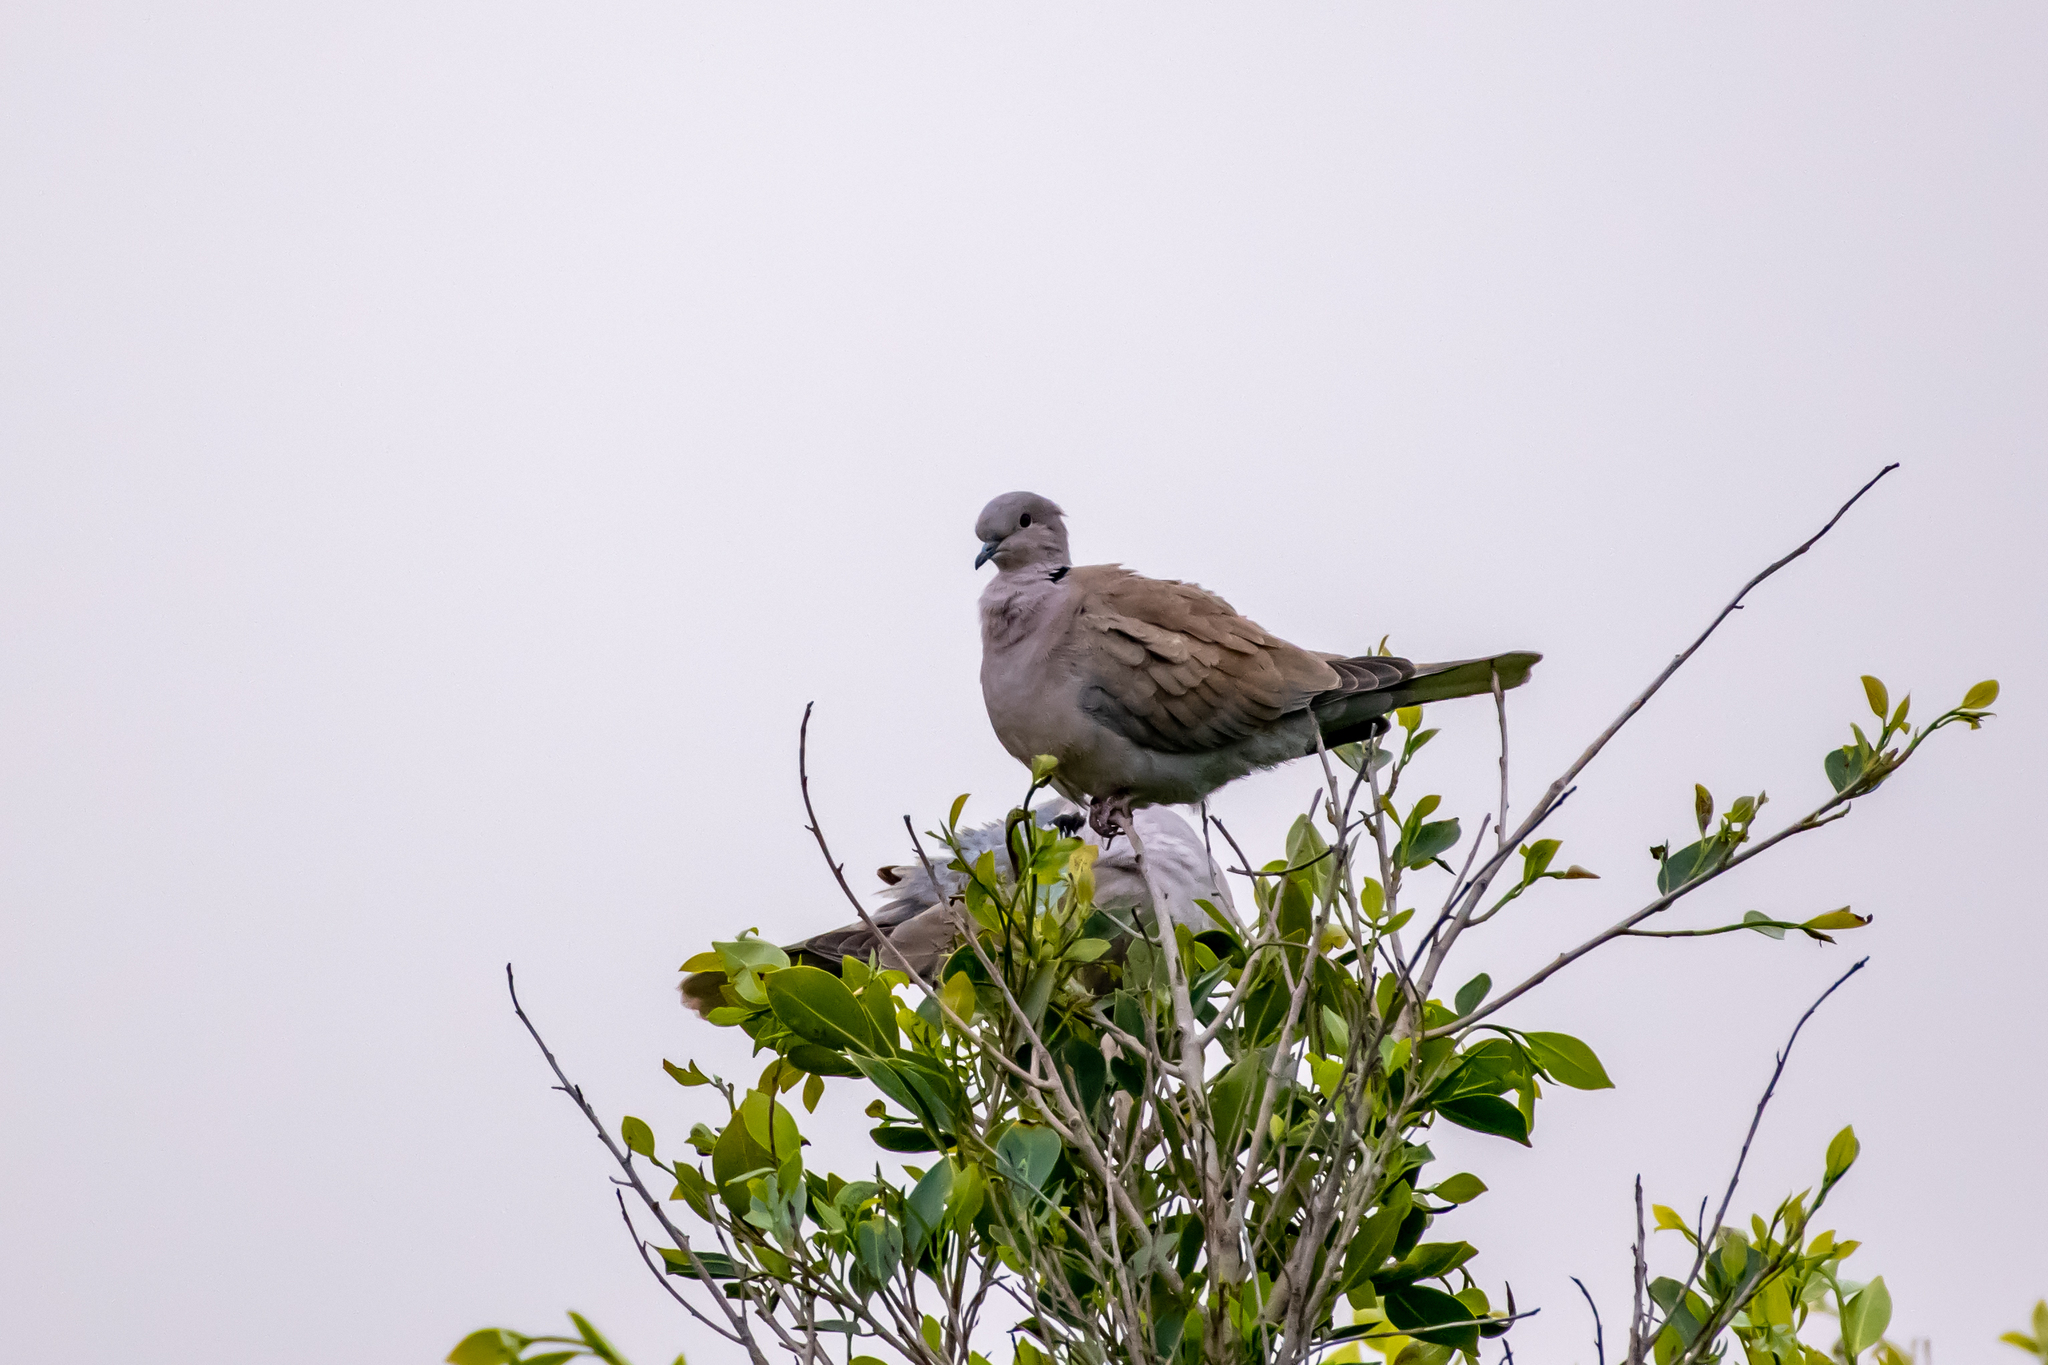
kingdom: Animalia
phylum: Chordata
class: Aves
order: Columbiformes
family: Columbidae
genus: Streptopelia
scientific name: Streptopelia decaocto
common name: Eurasian collared dove
